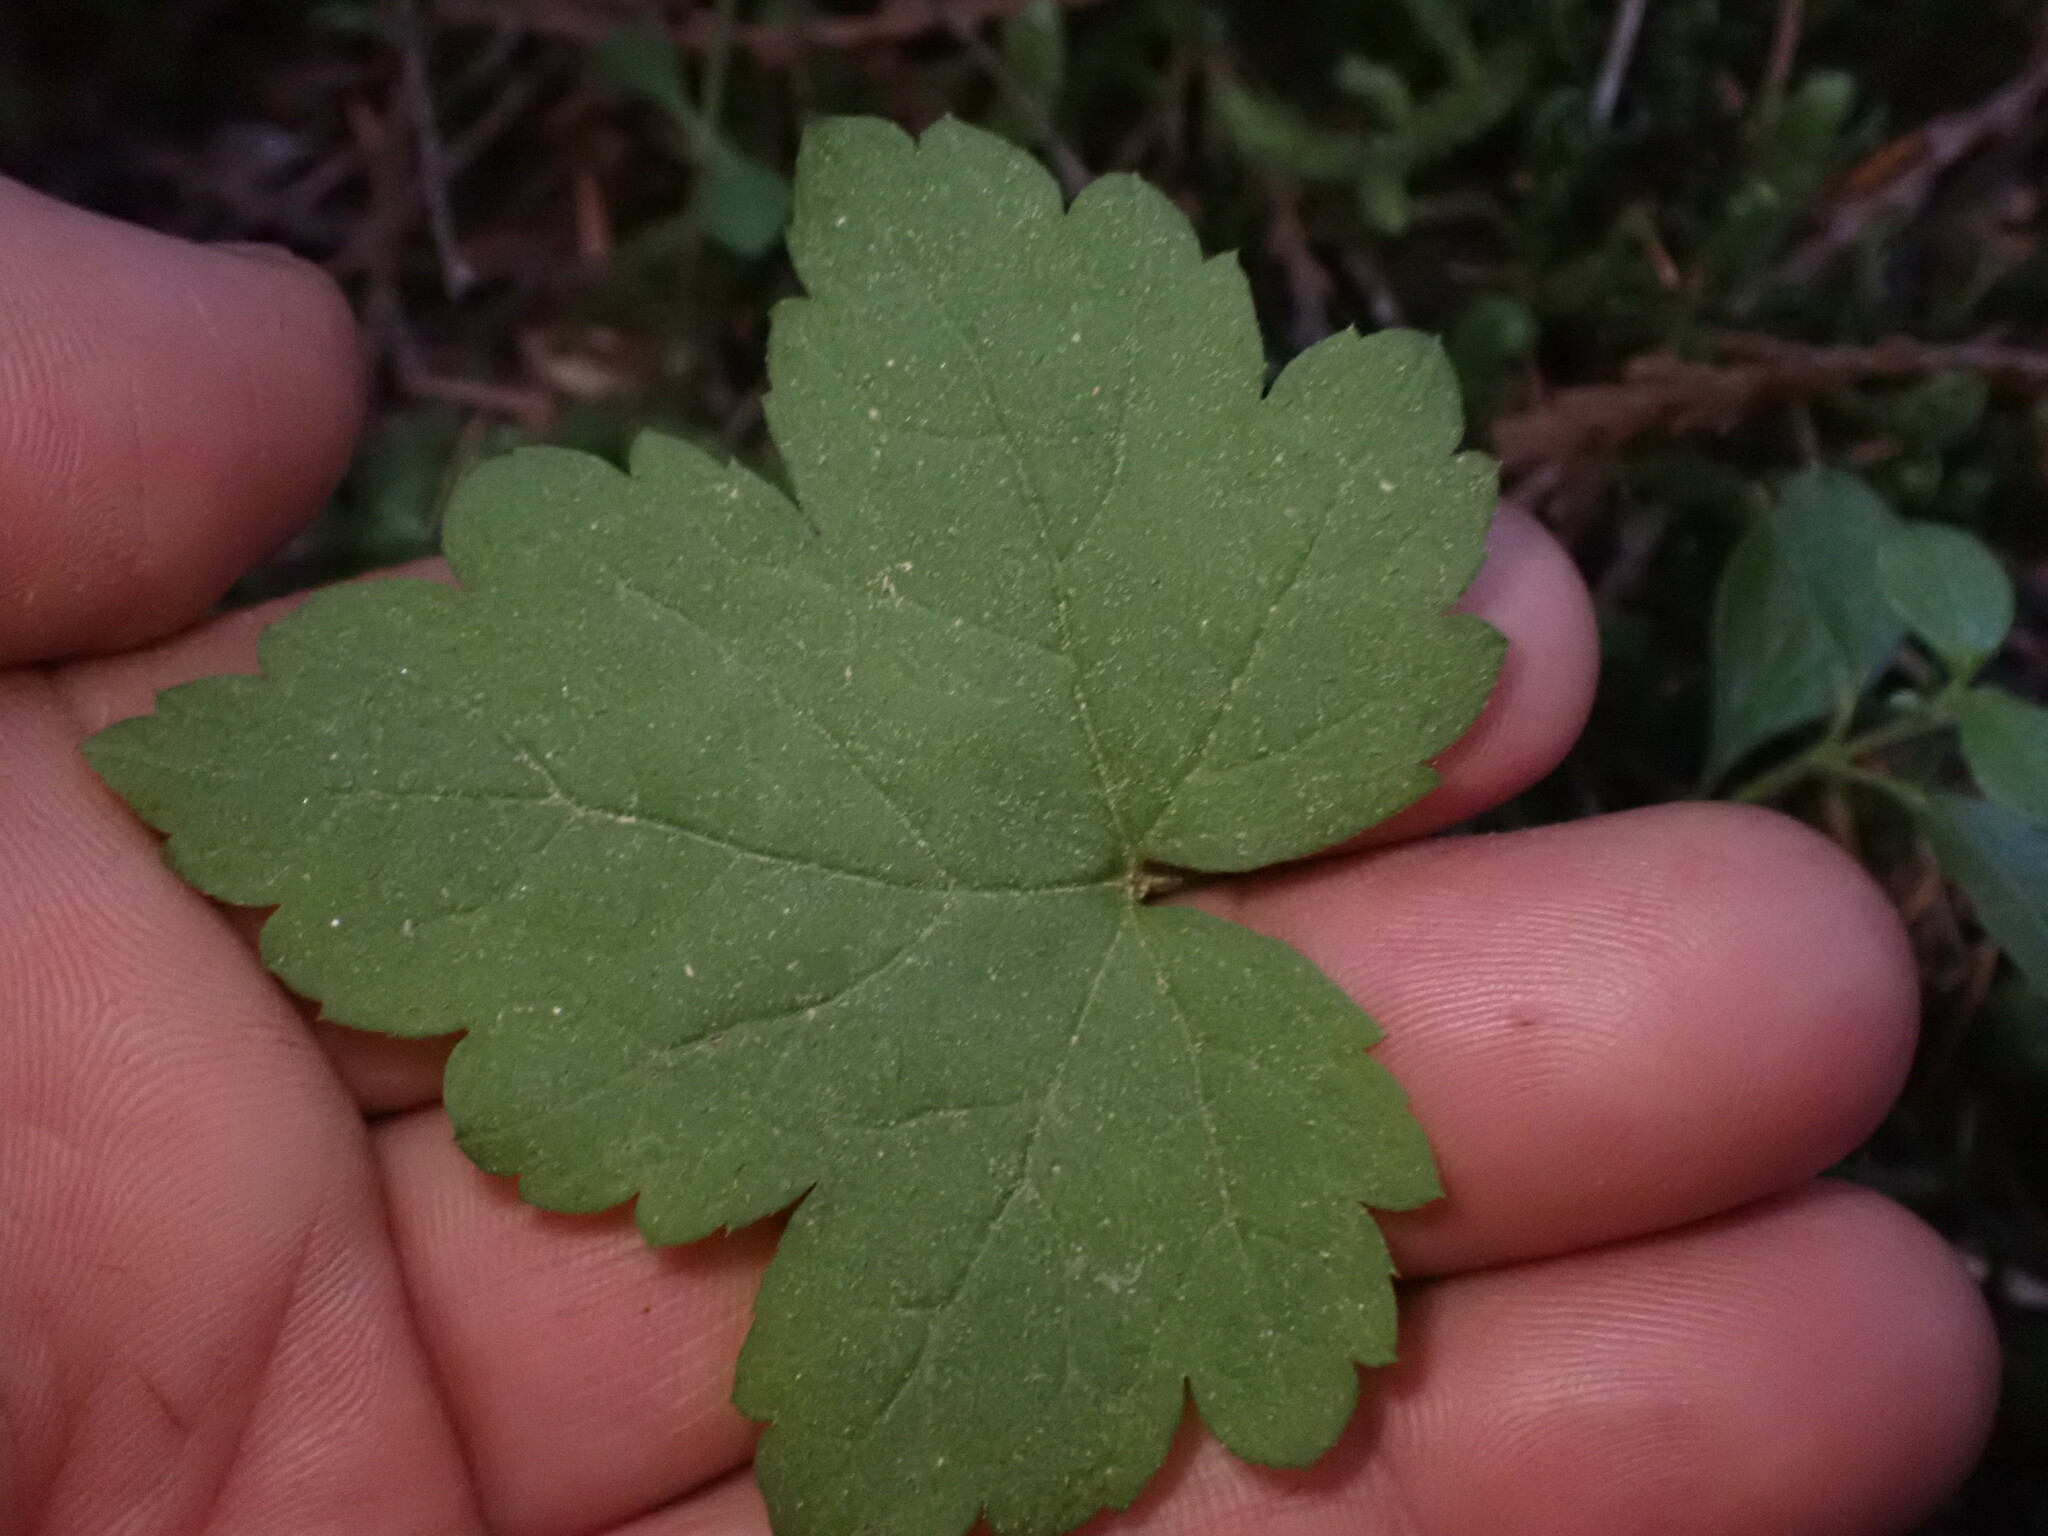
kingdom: Plantae
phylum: Tracheophyta
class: Magnoliopsida
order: Saxifragales
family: Saxifragaceae
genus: Tiarella
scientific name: Tiarella trifoliata
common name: Sugar-scoop
